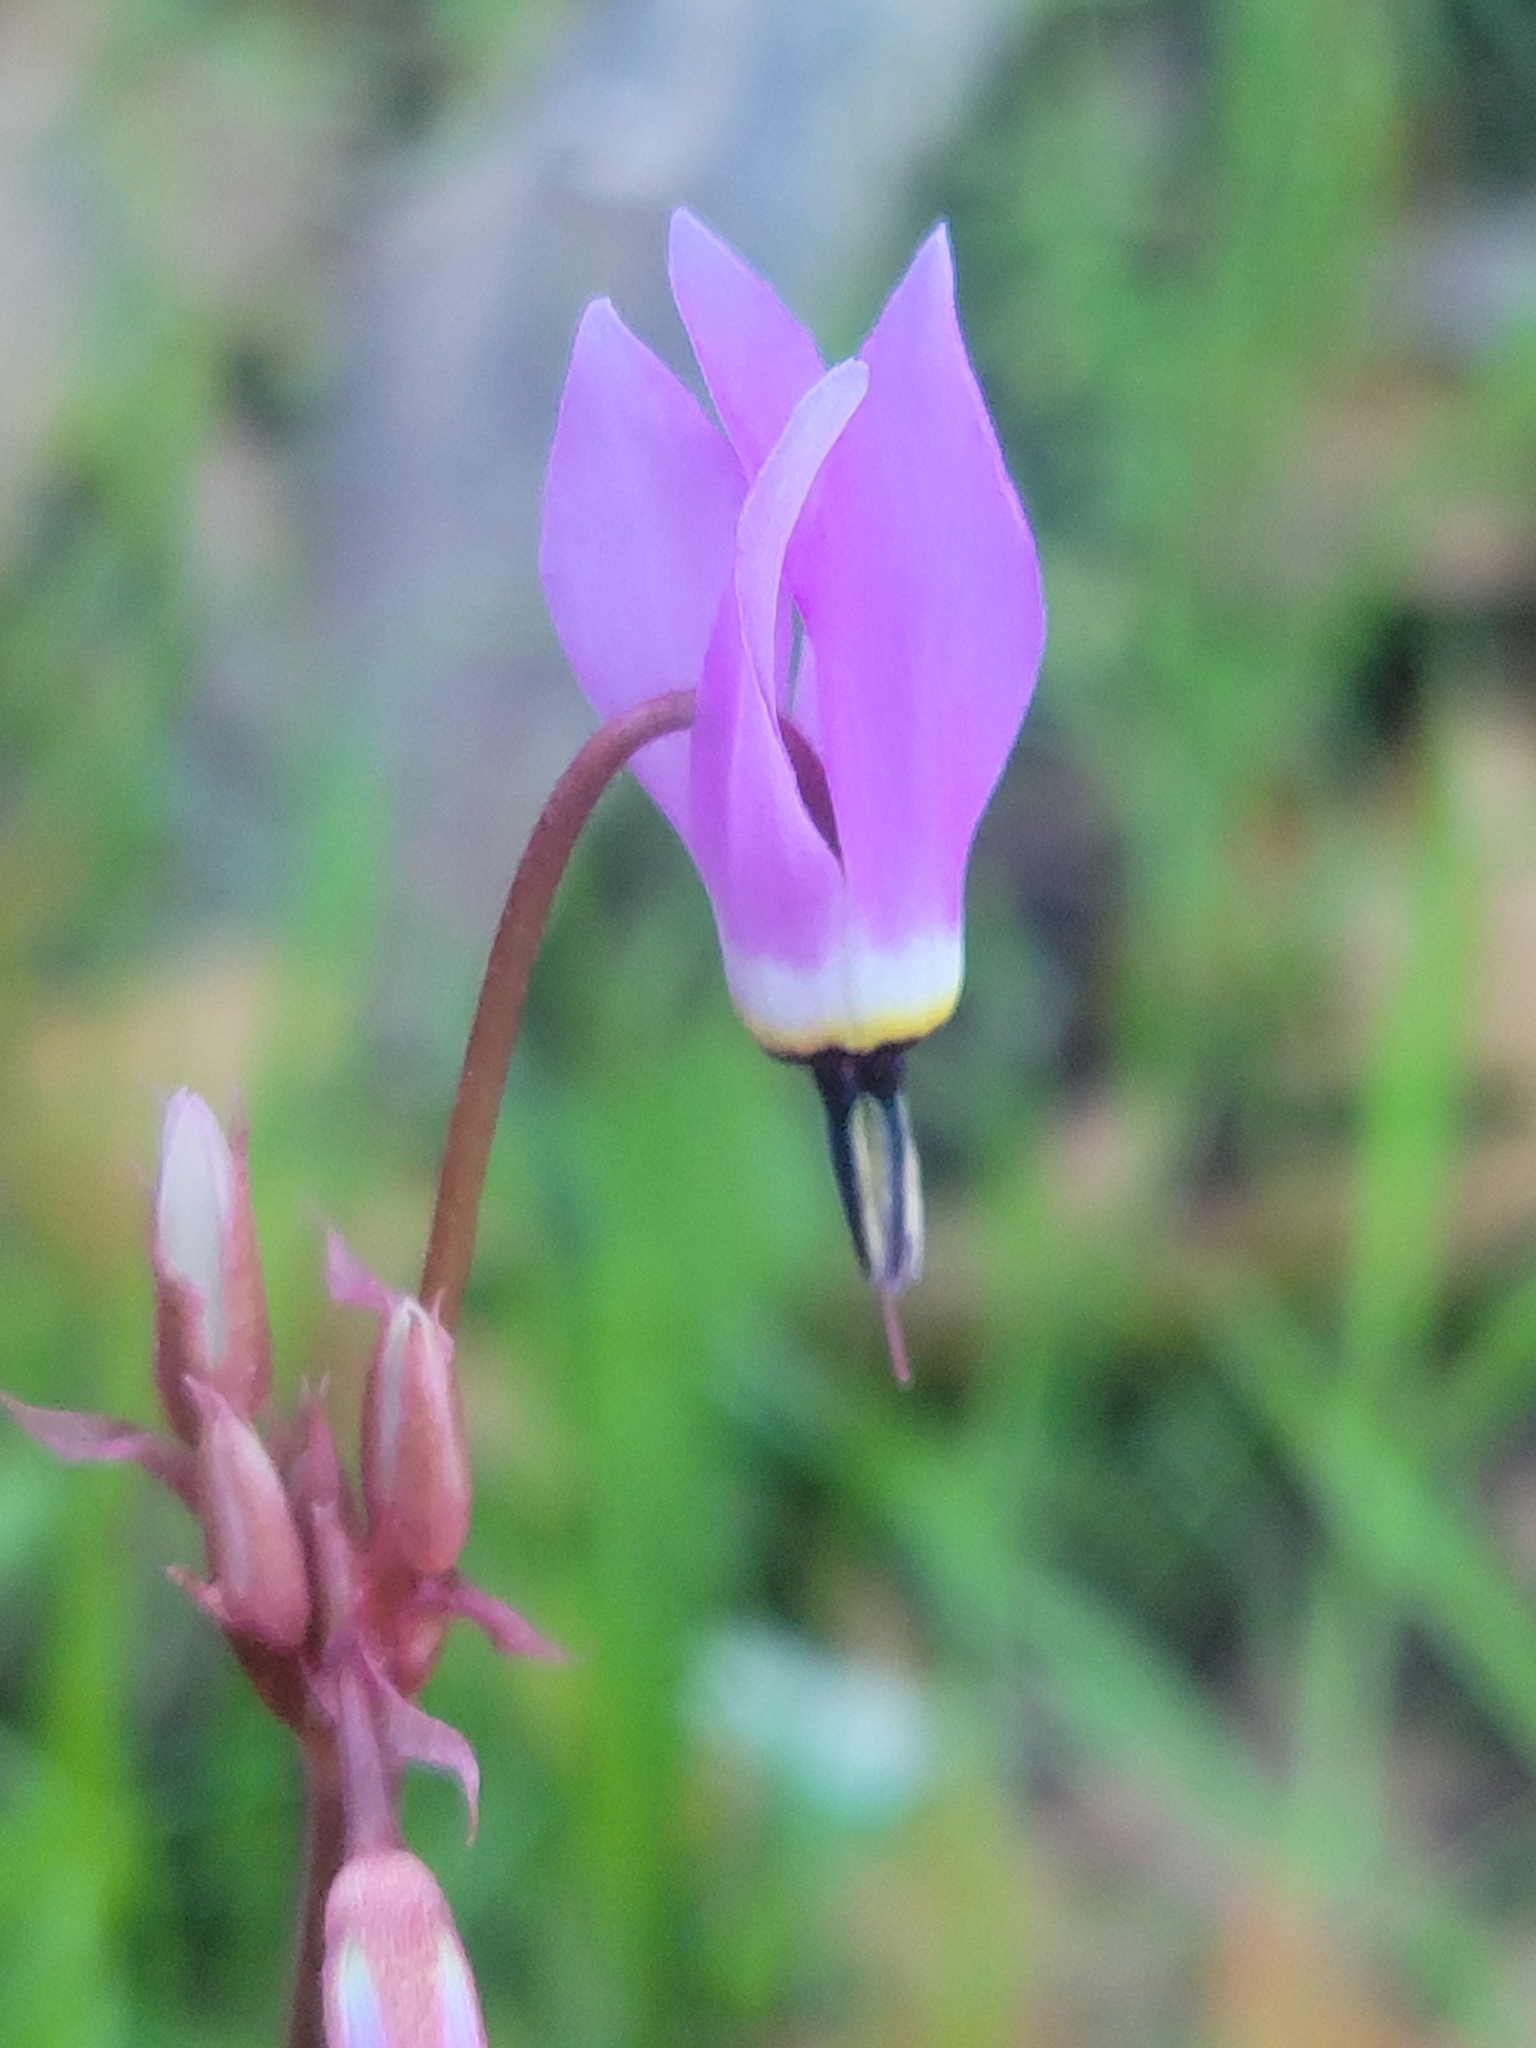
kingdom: Plantae
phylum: Tracheophyta
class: Magnoliopsida
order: Ericales
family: Primulaceae
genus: Dodecatheon
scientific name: Dodecatheon hendersonii
